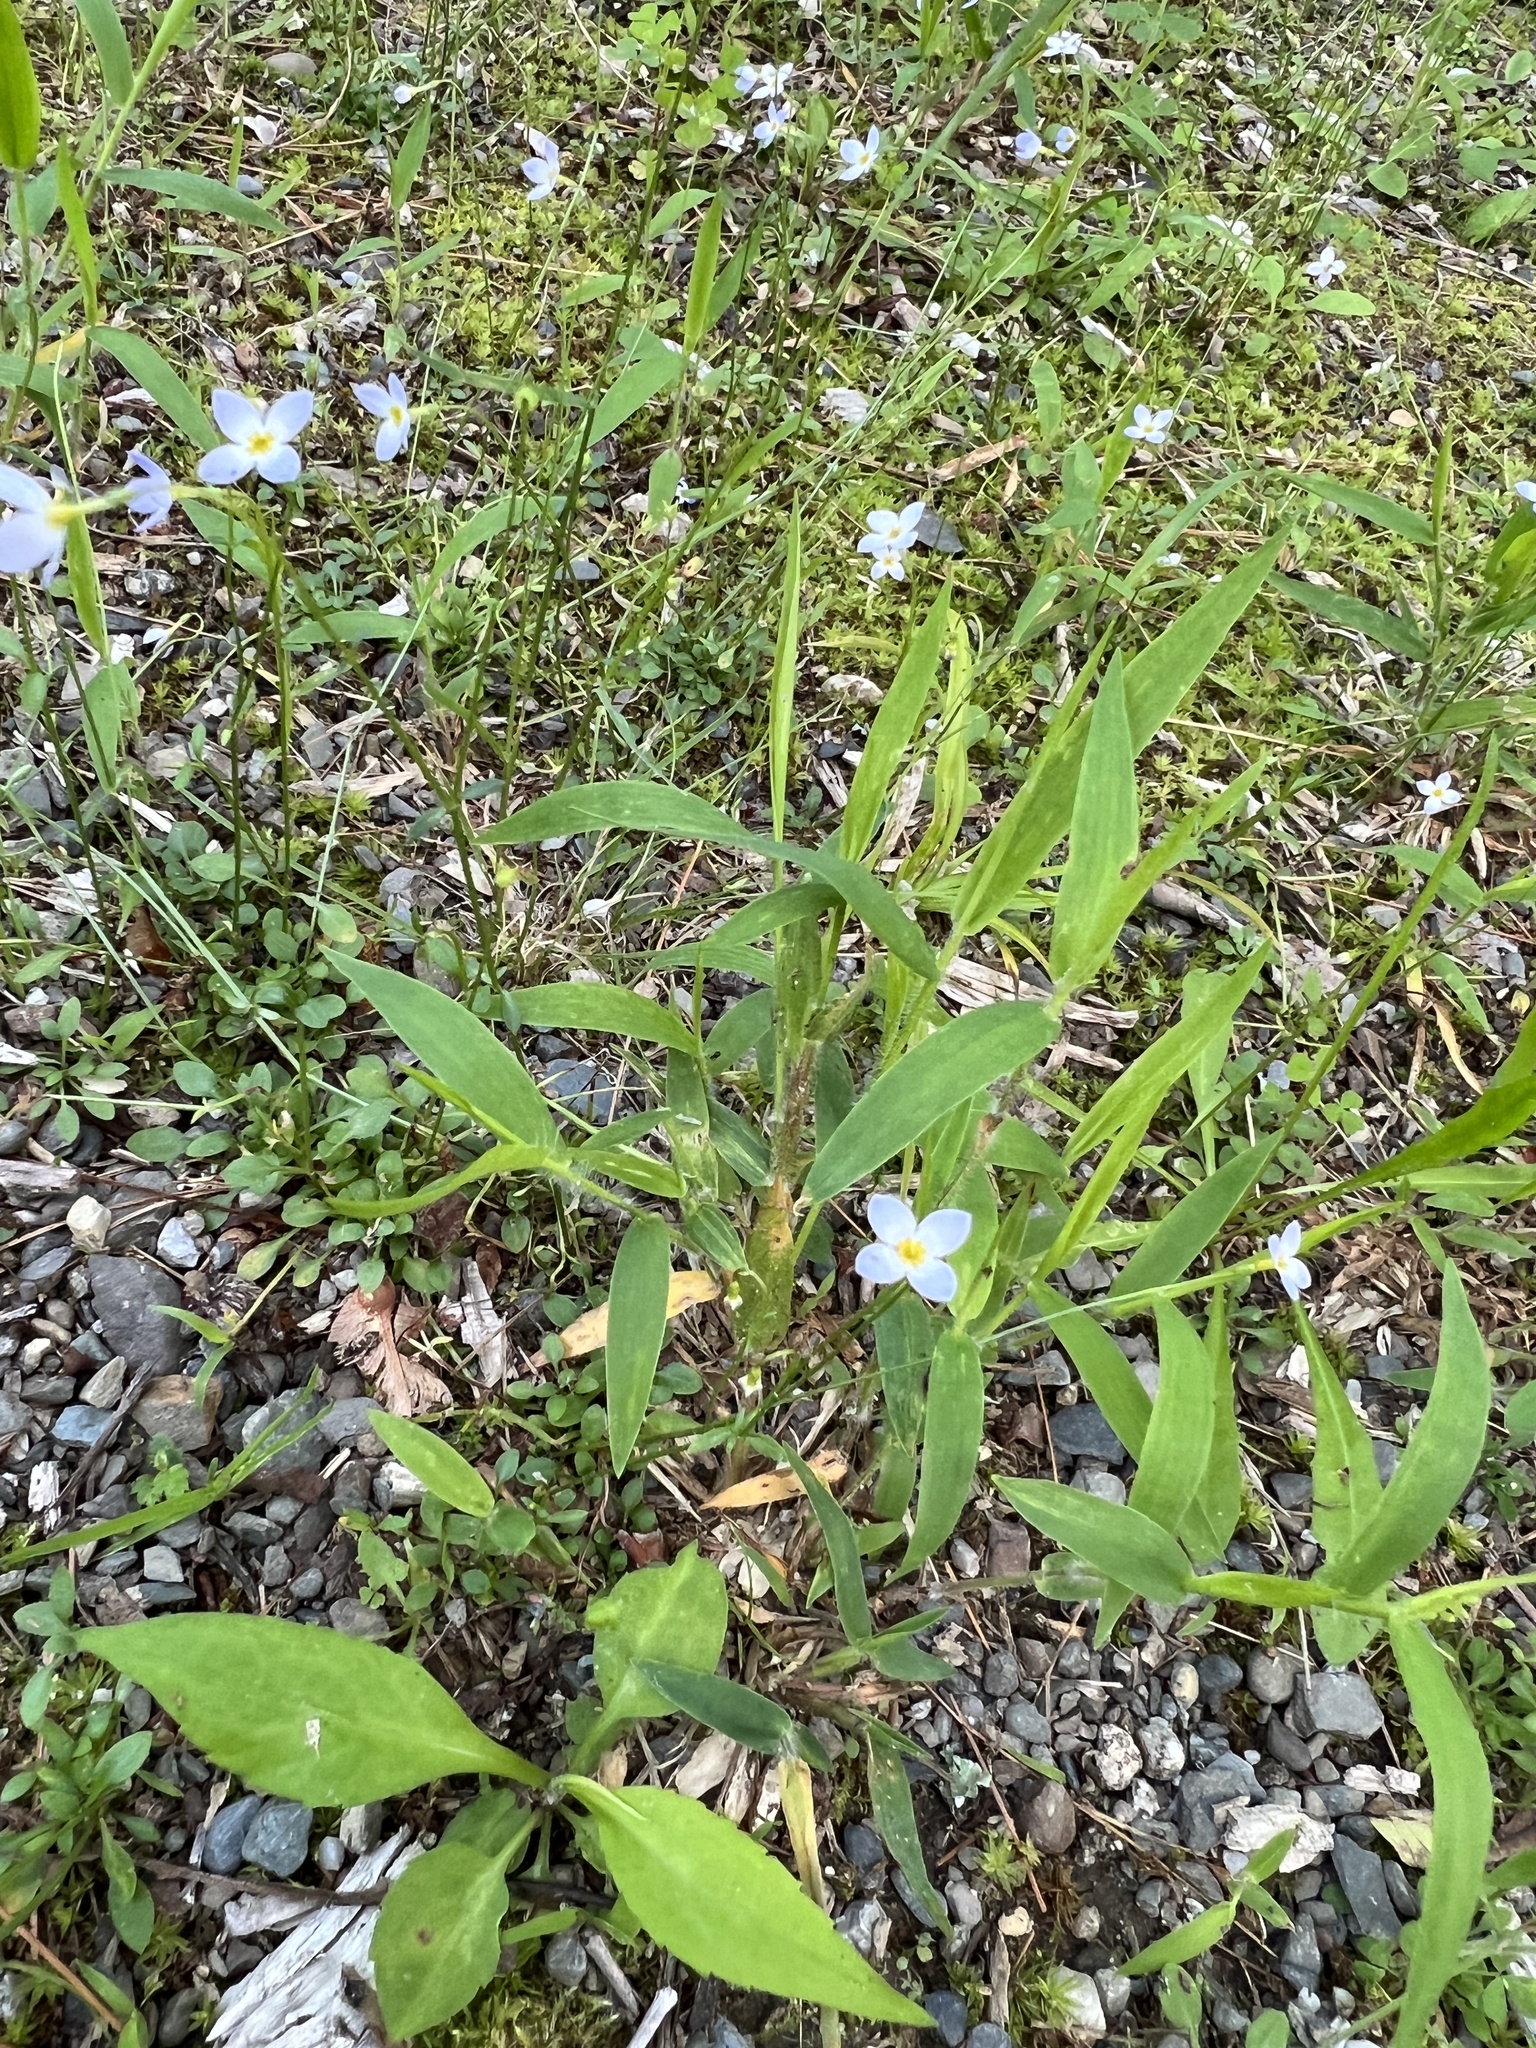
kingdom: Plantae
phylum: Tracheophyta
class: Magnoliopsida
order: Gentianales
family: Rubiaceae
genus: Houstonia
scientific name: Houstonia caerulea
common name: Bluets
